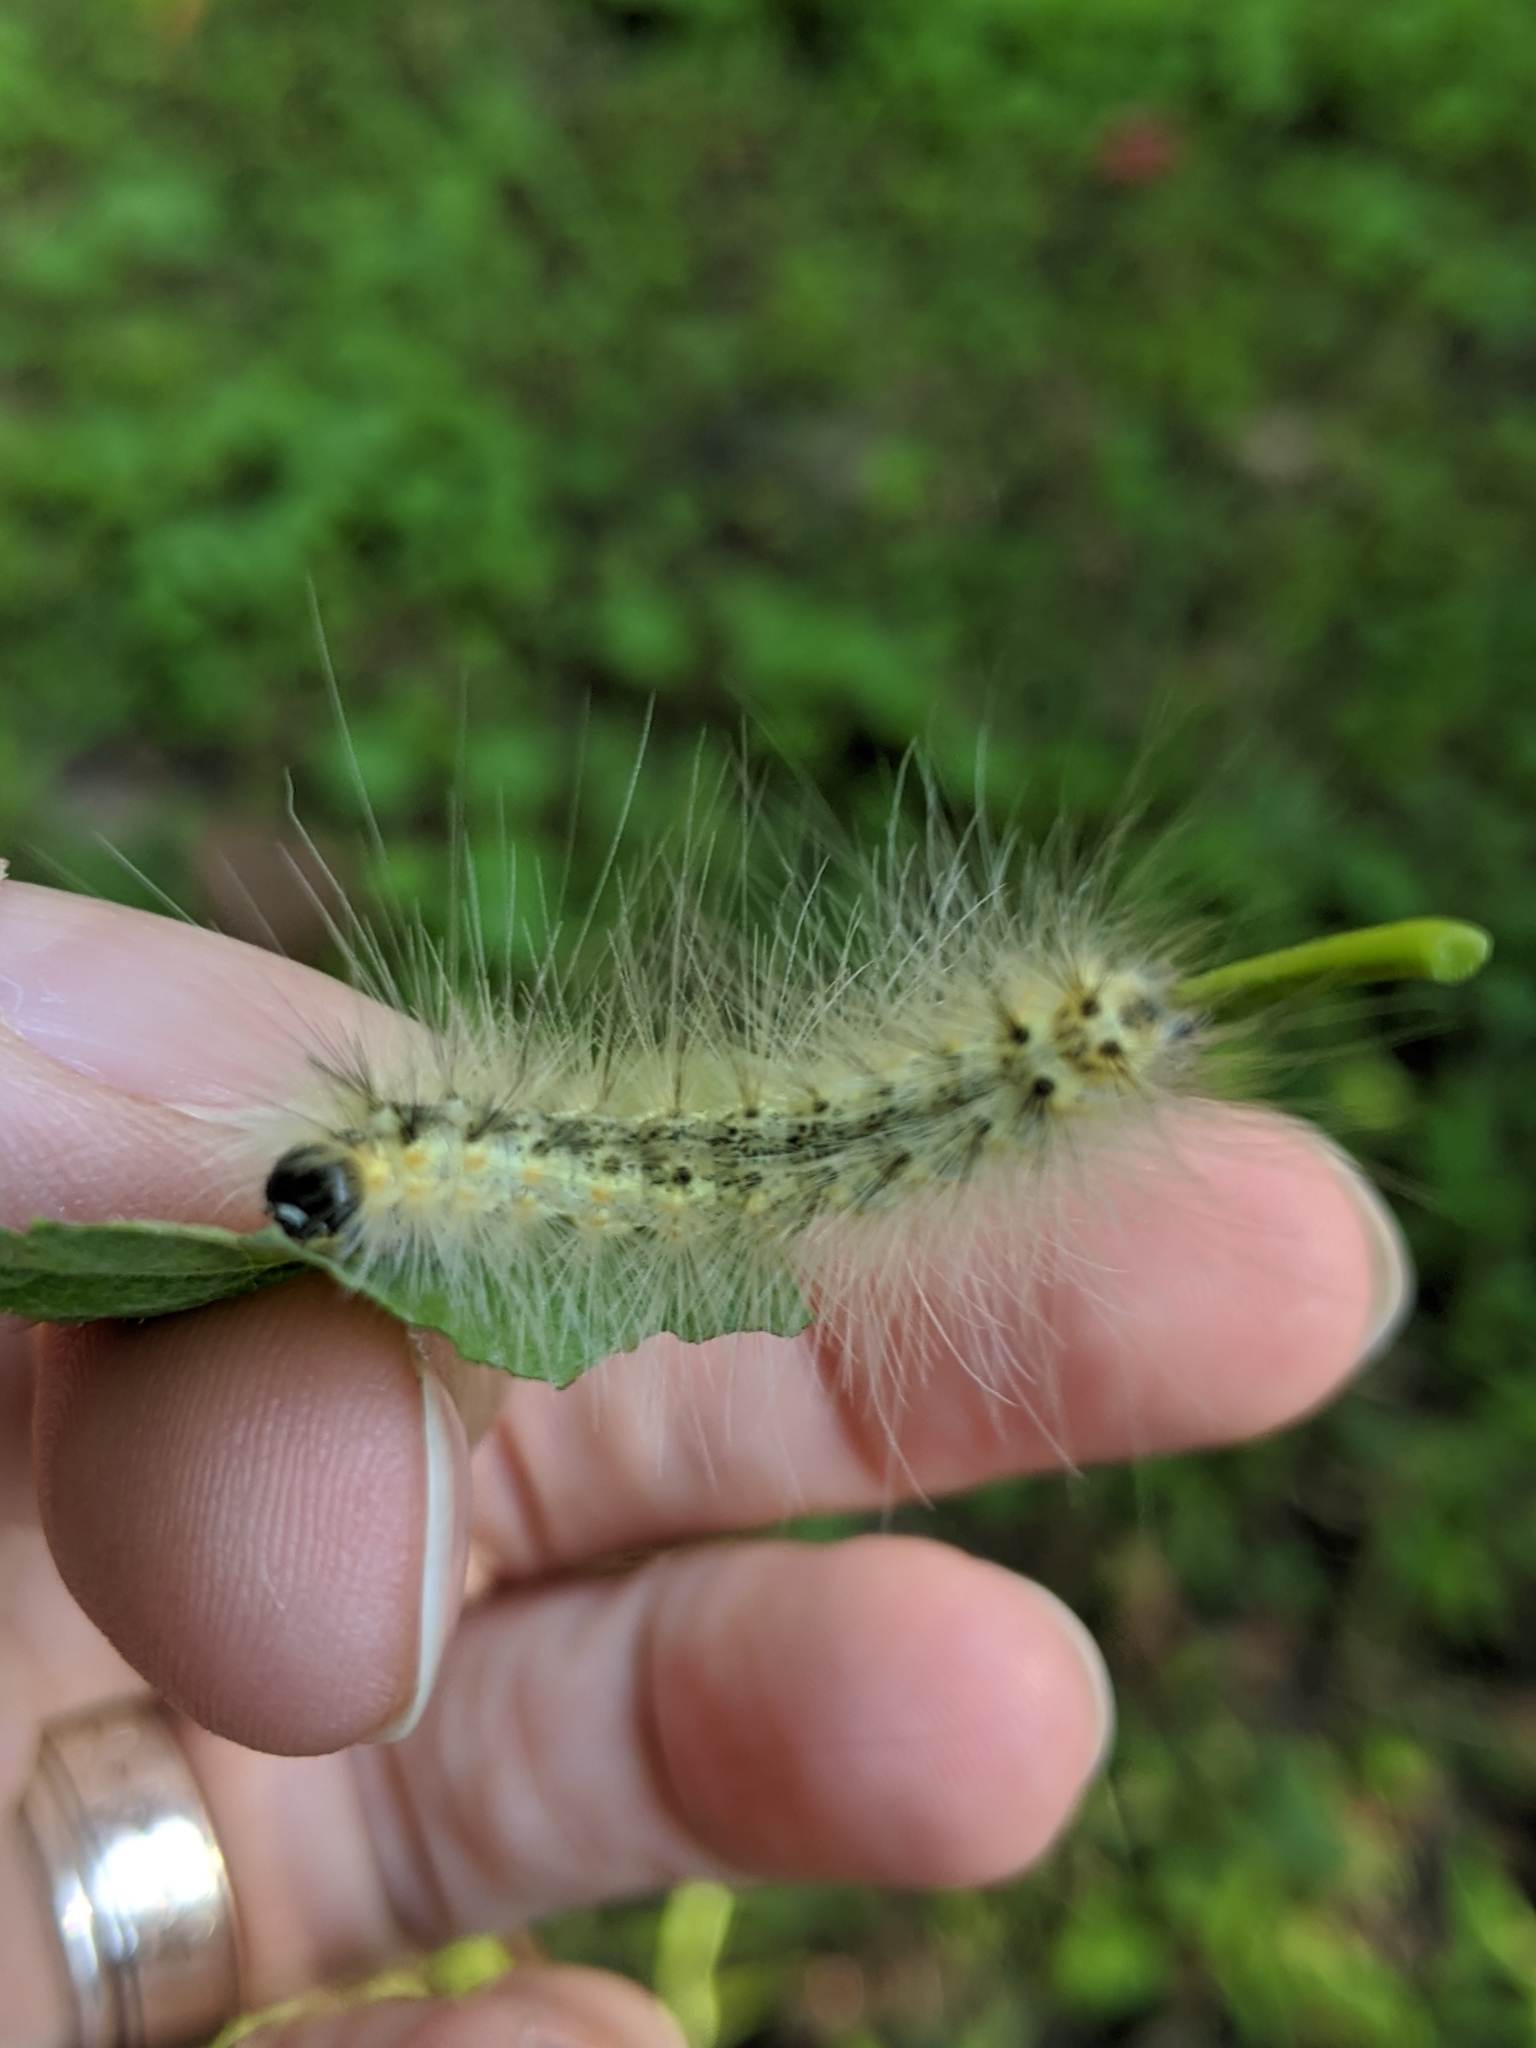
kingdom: Animalia
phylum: Arthropoda
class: Insecta
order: Lepidoptera
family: Erebidae
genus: Hyphantria
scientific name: Hyphantria cunea
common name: American white moth
